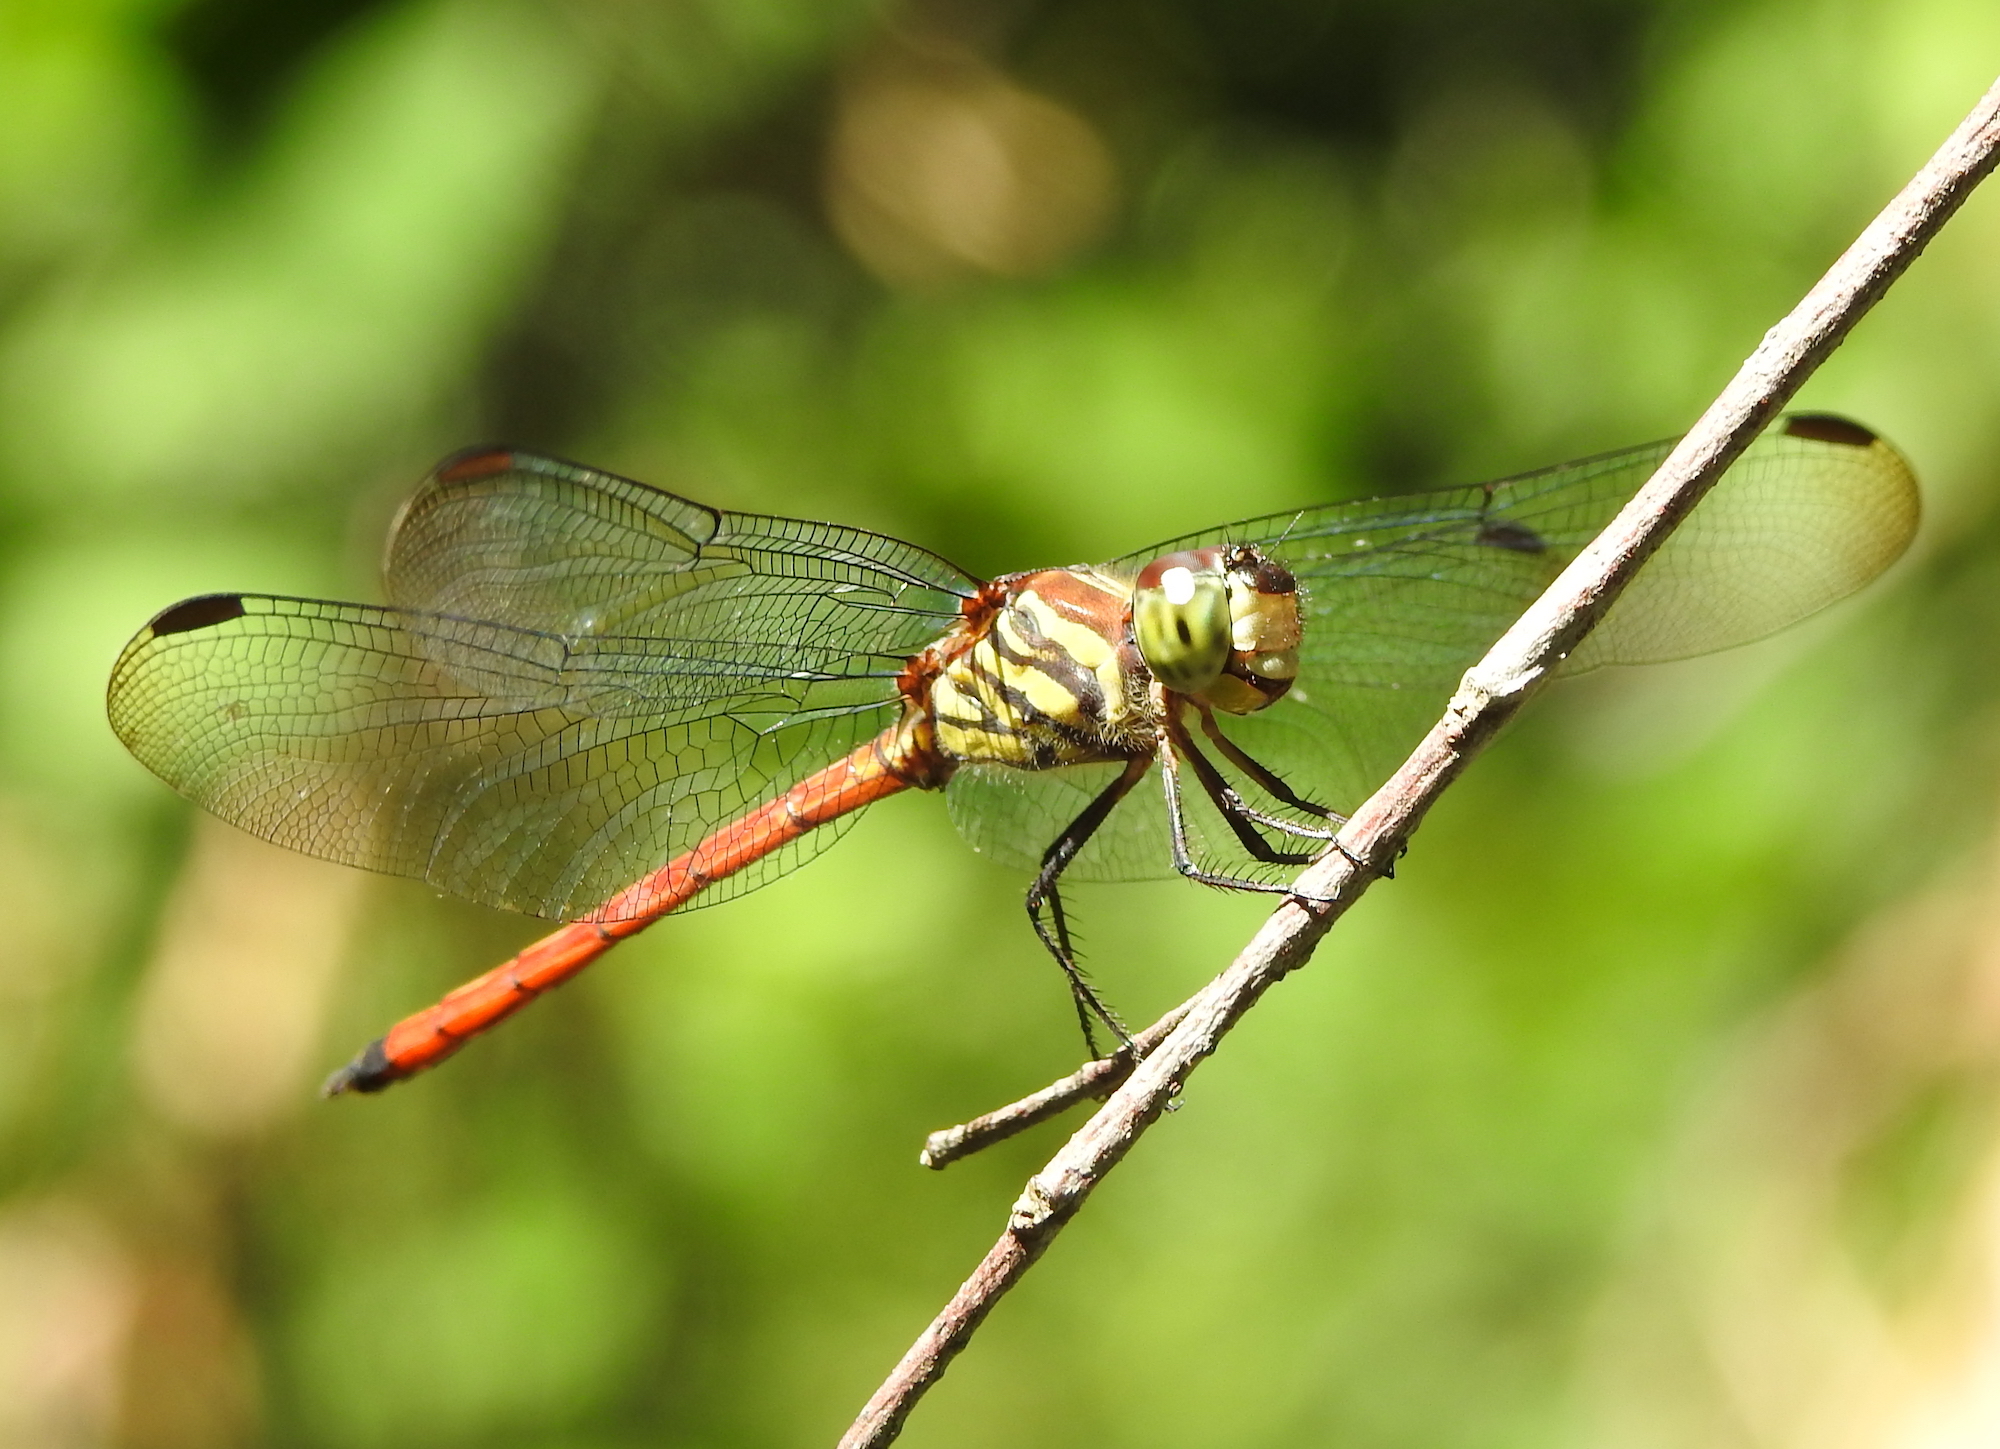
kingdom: Animalia
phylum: Arthropoda
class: Insecta
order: Odonata
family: Libellulidae
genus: Lathrecista
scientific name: Lathrecista asiatica
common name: Scarlet grenadier
